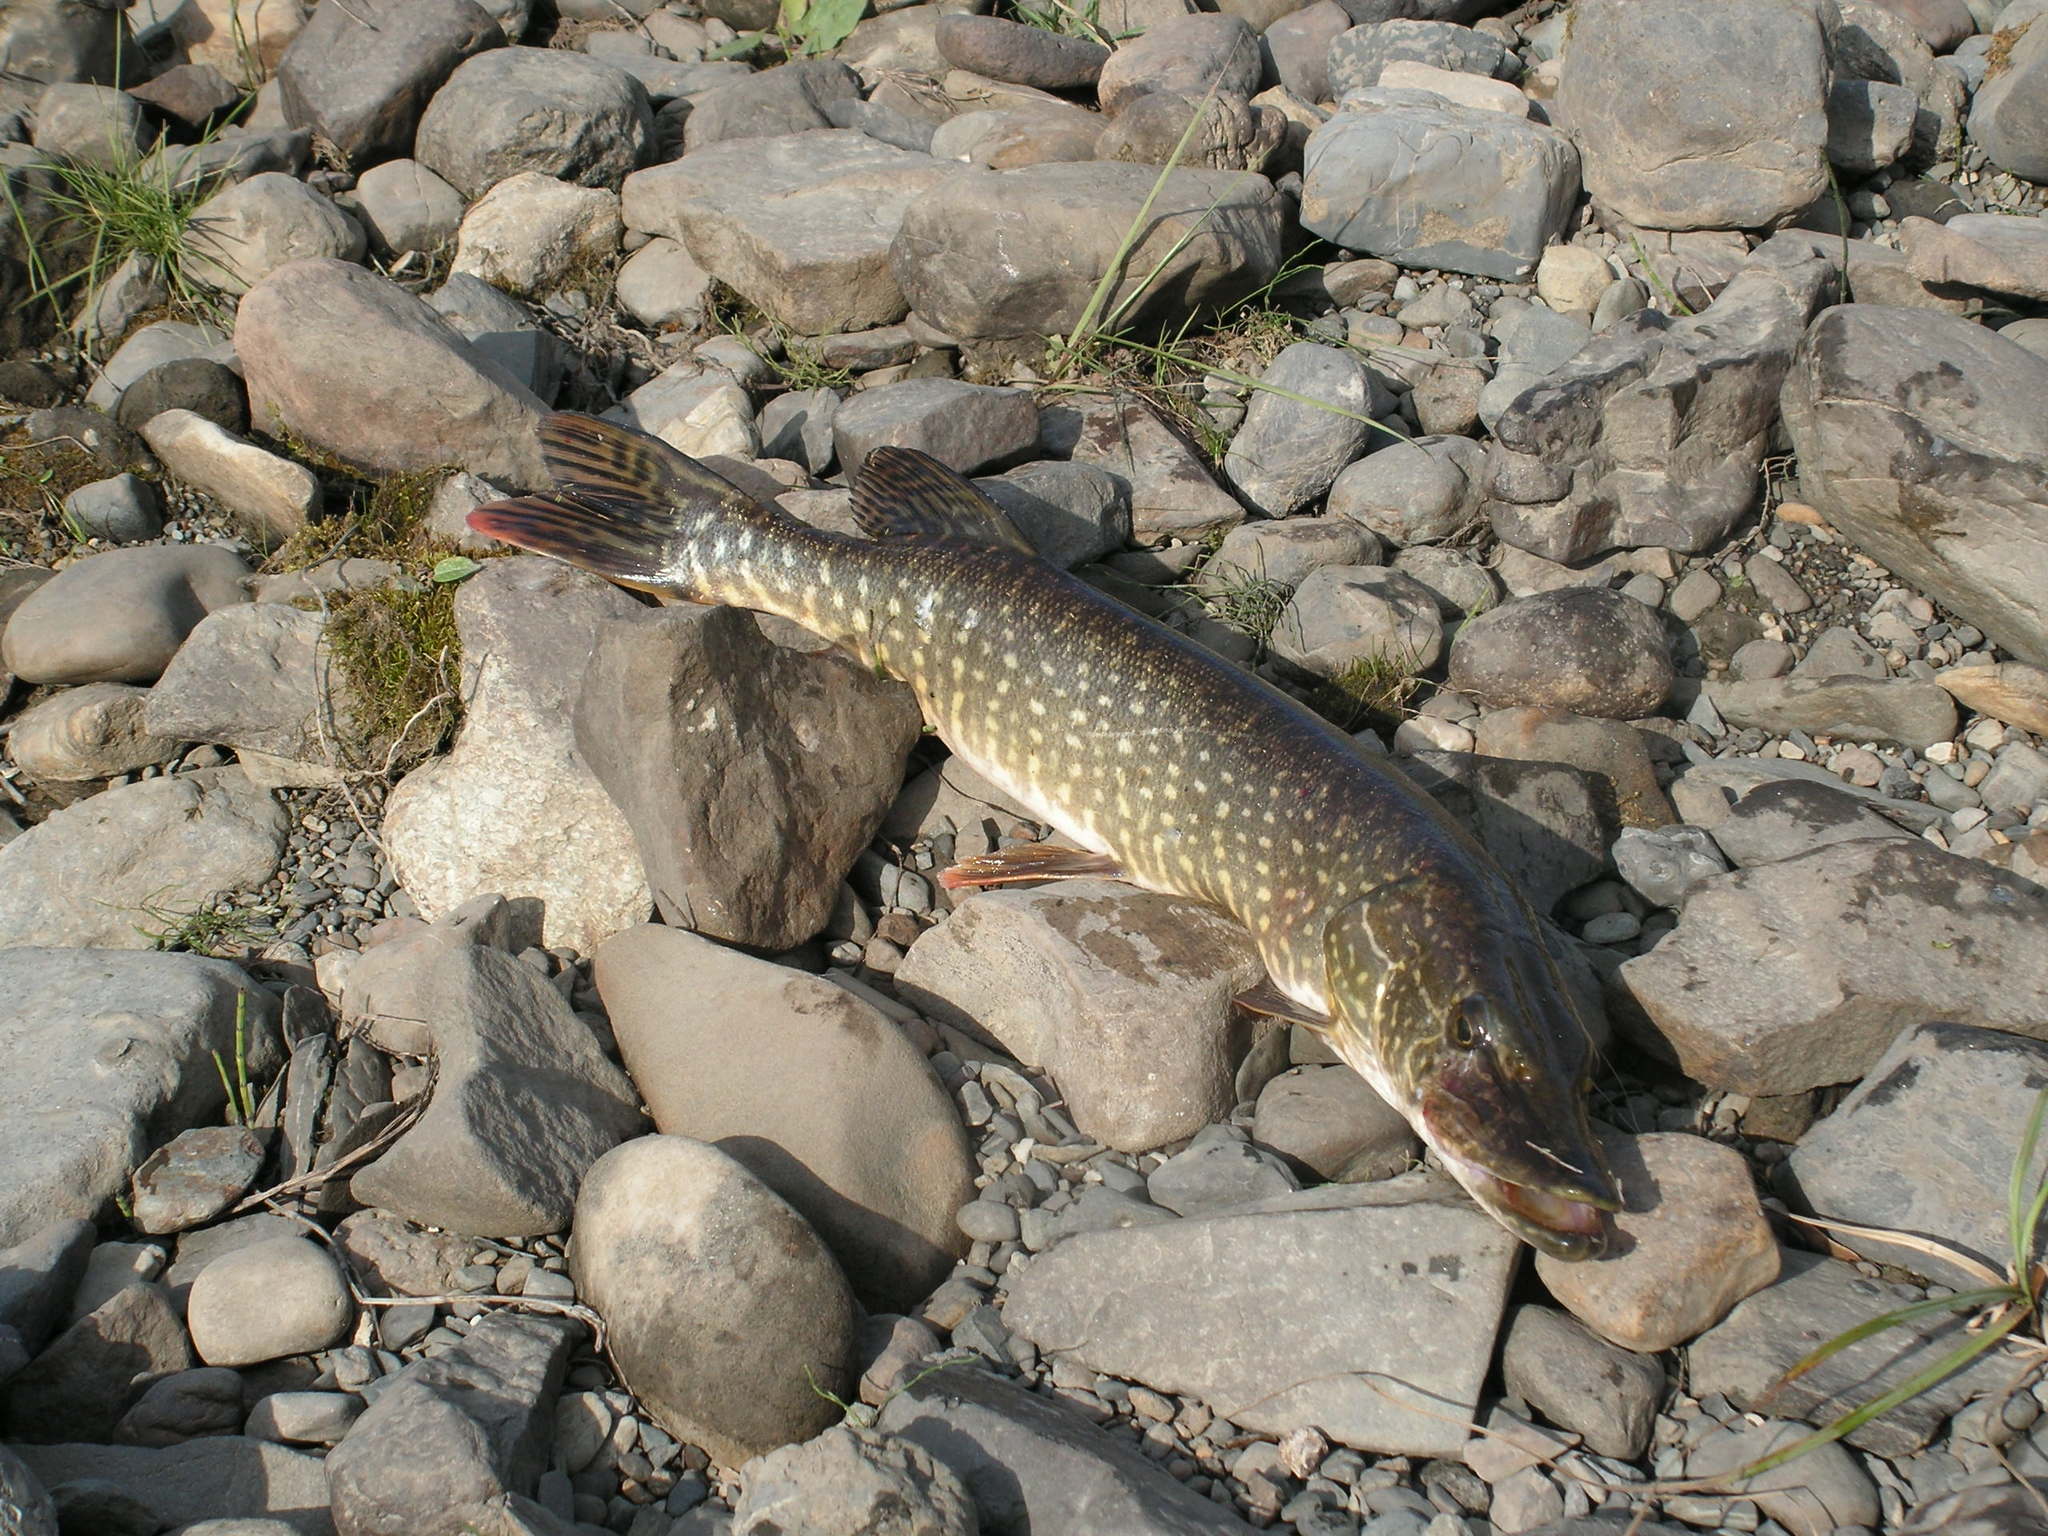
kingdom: Animalia
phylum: Chordata
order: Esociformes
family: Esocidae
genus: Esox
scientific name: Esox lucius
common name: Northern pike
